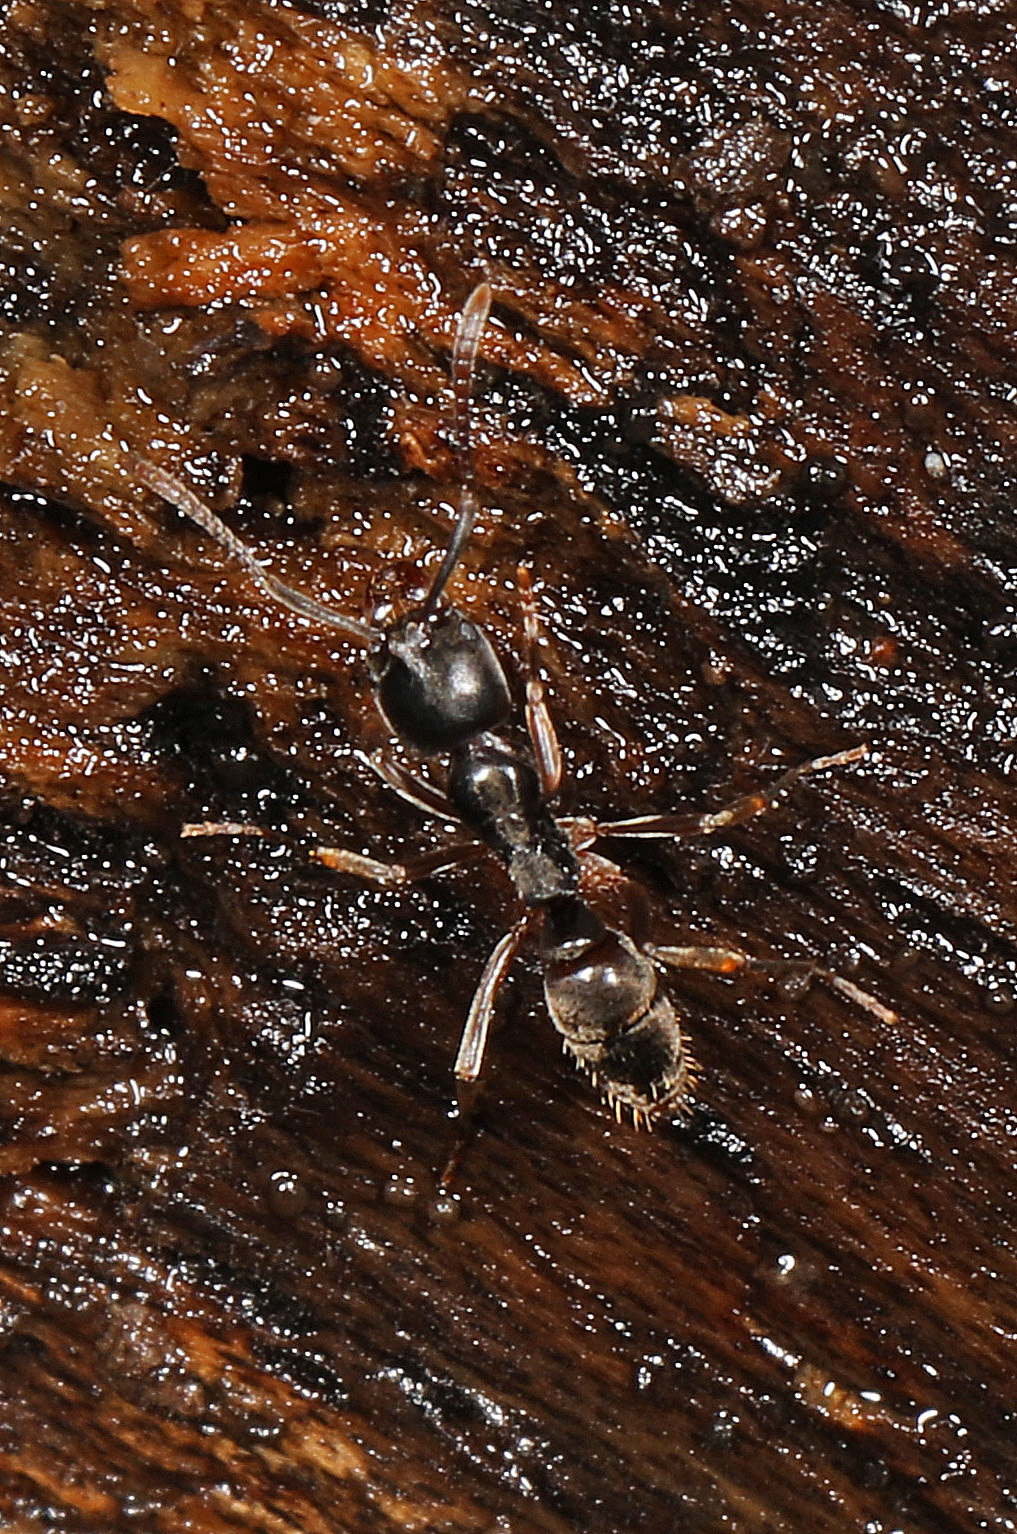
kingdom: Animalia
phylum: Arthropoda
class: Insecta
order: Hymenoptera
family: Formicidae
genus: Pachycondyla
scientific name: Pachycondyla chinensis
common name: Asian needle ant
